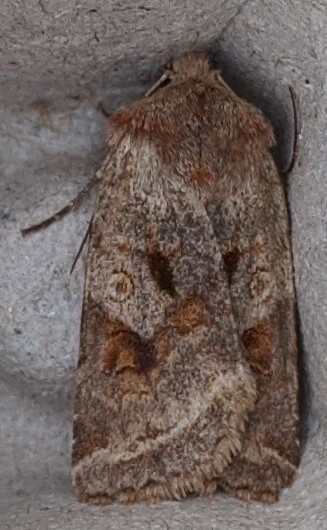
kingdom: Animalia
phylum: Arthropoda
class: Insecta
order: Lepidoptera
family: Noctuidae
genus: Cerastis
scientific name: Cerastis salicarum
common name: Willow dart
